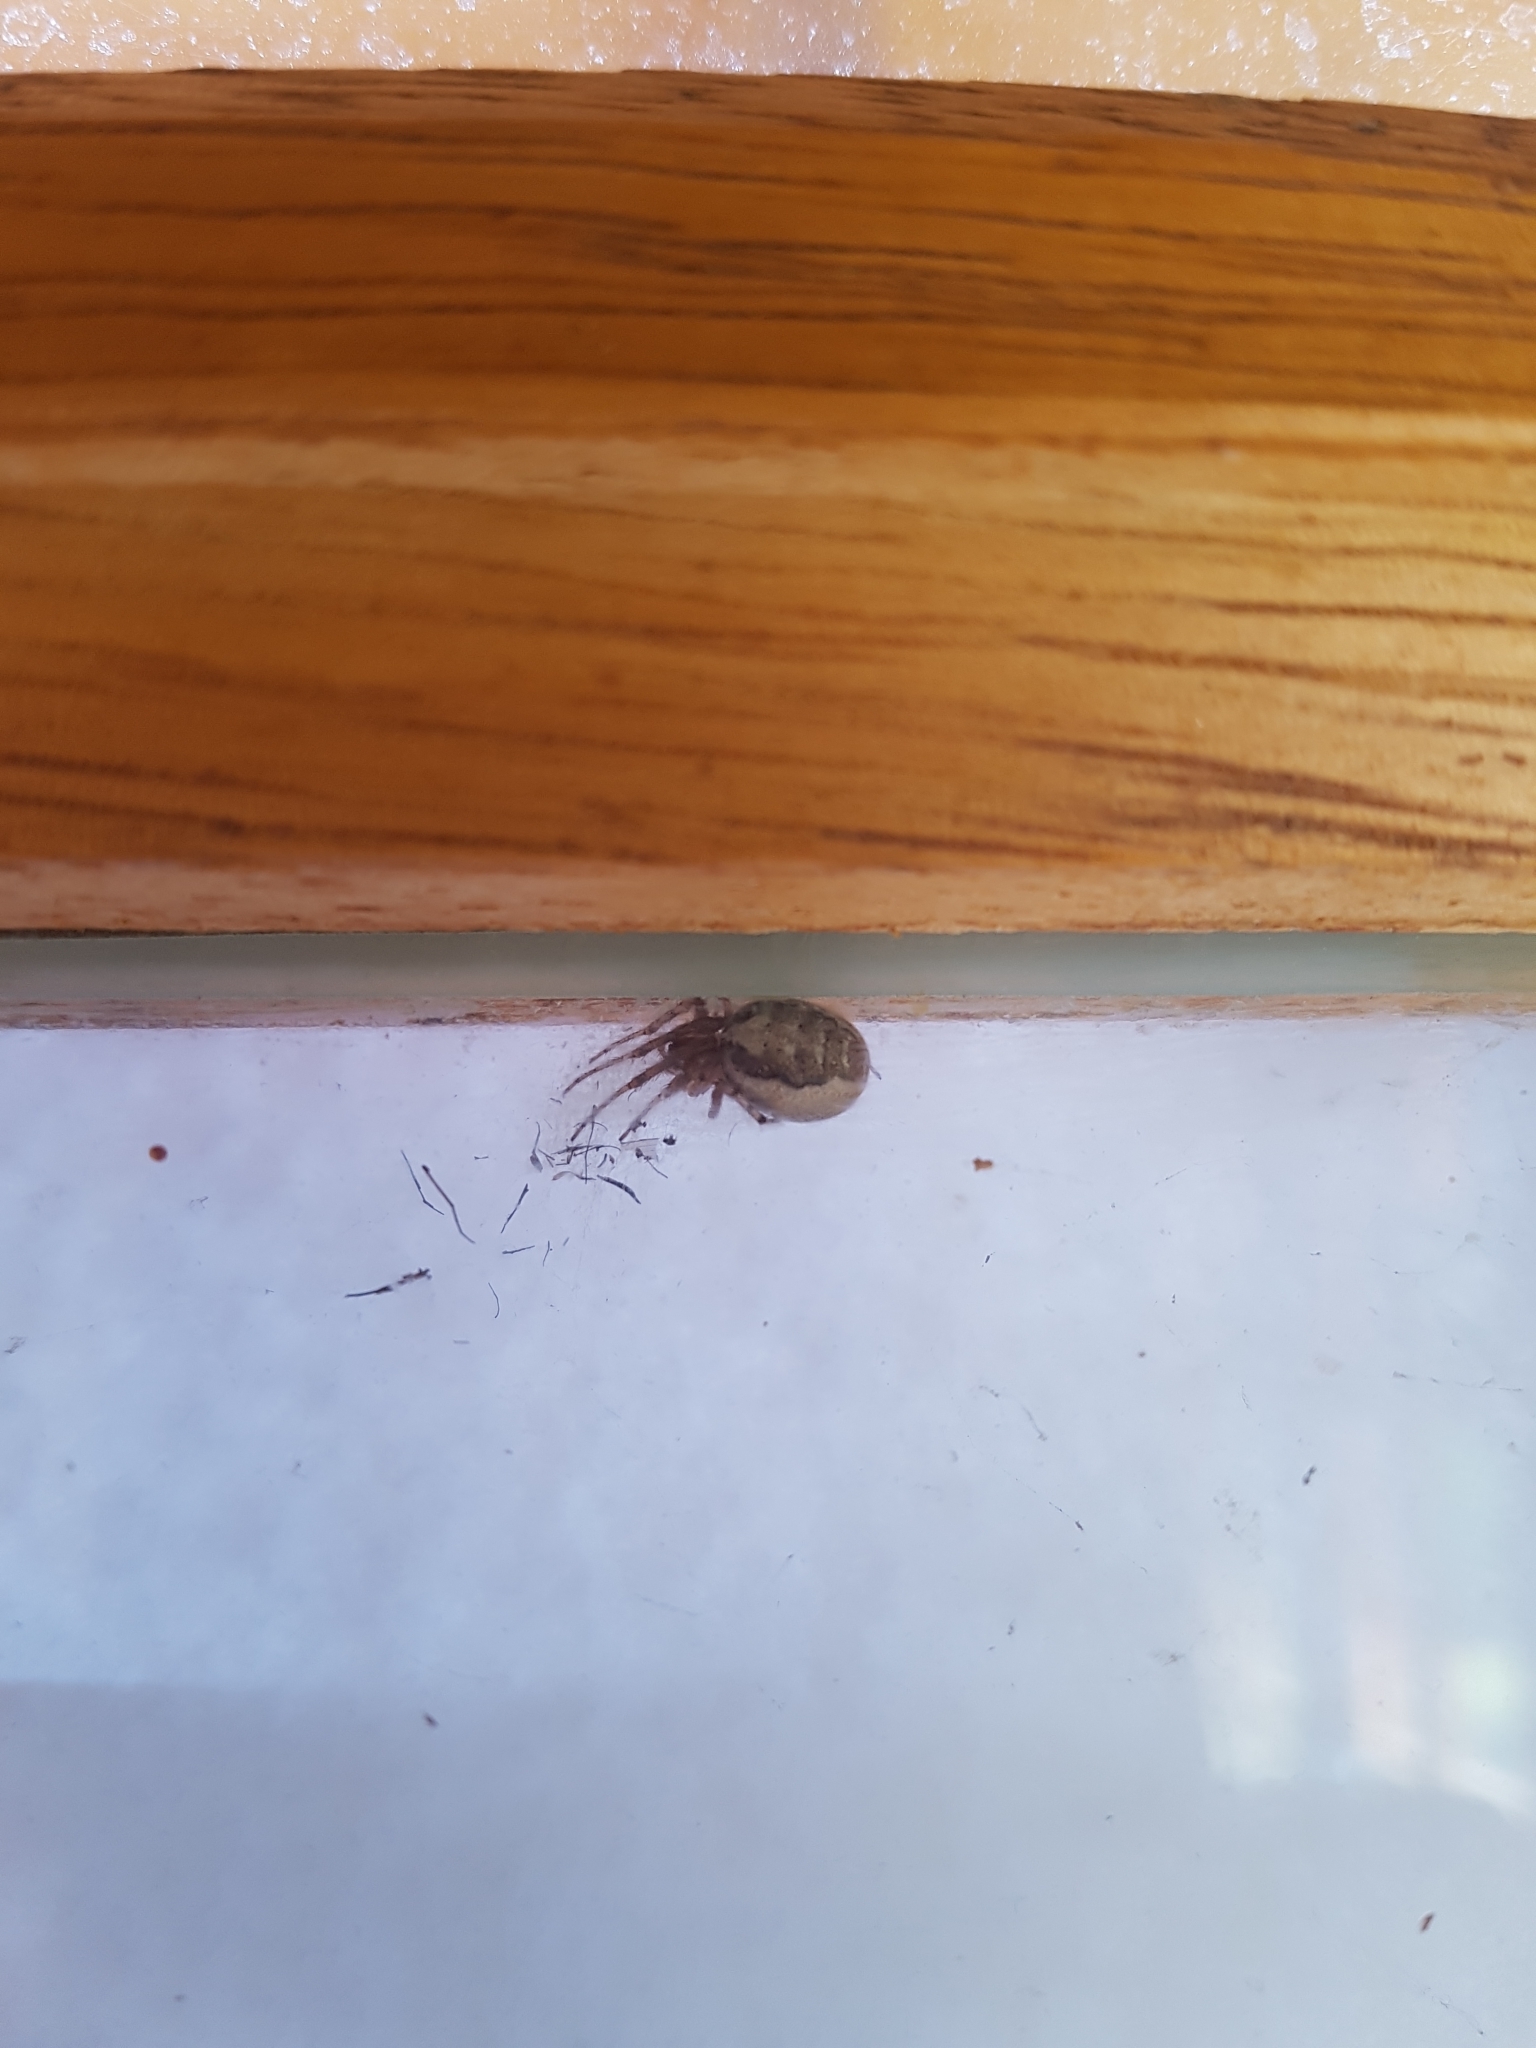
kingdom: Animalia
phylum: Arthropoda
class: Arachnida
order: Araneae
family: Araneidae
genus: Zygiella
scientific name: Zygiella x-notata
